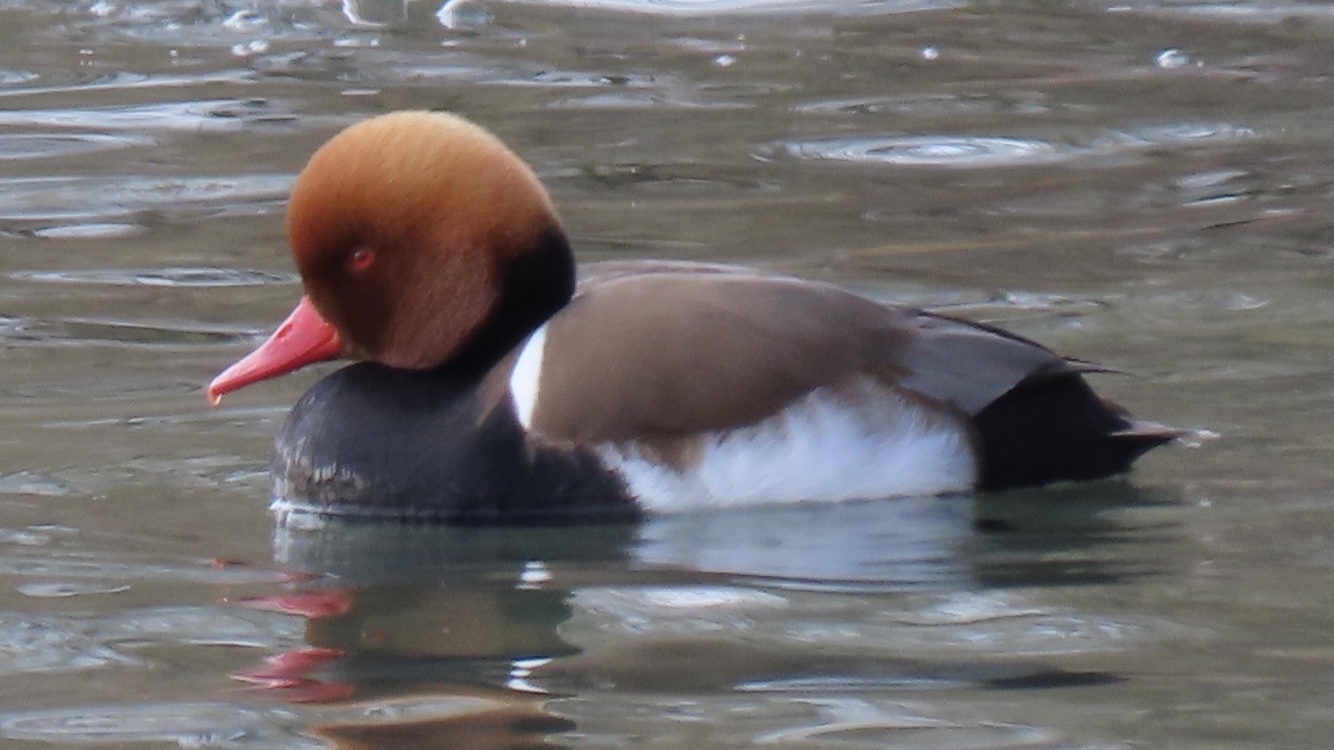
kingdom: Animalia
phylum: Chordata
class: Aves
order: Anseriformes
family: Anatidae
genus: Netta
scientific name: Netta rufina
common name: Red-crested pochard
